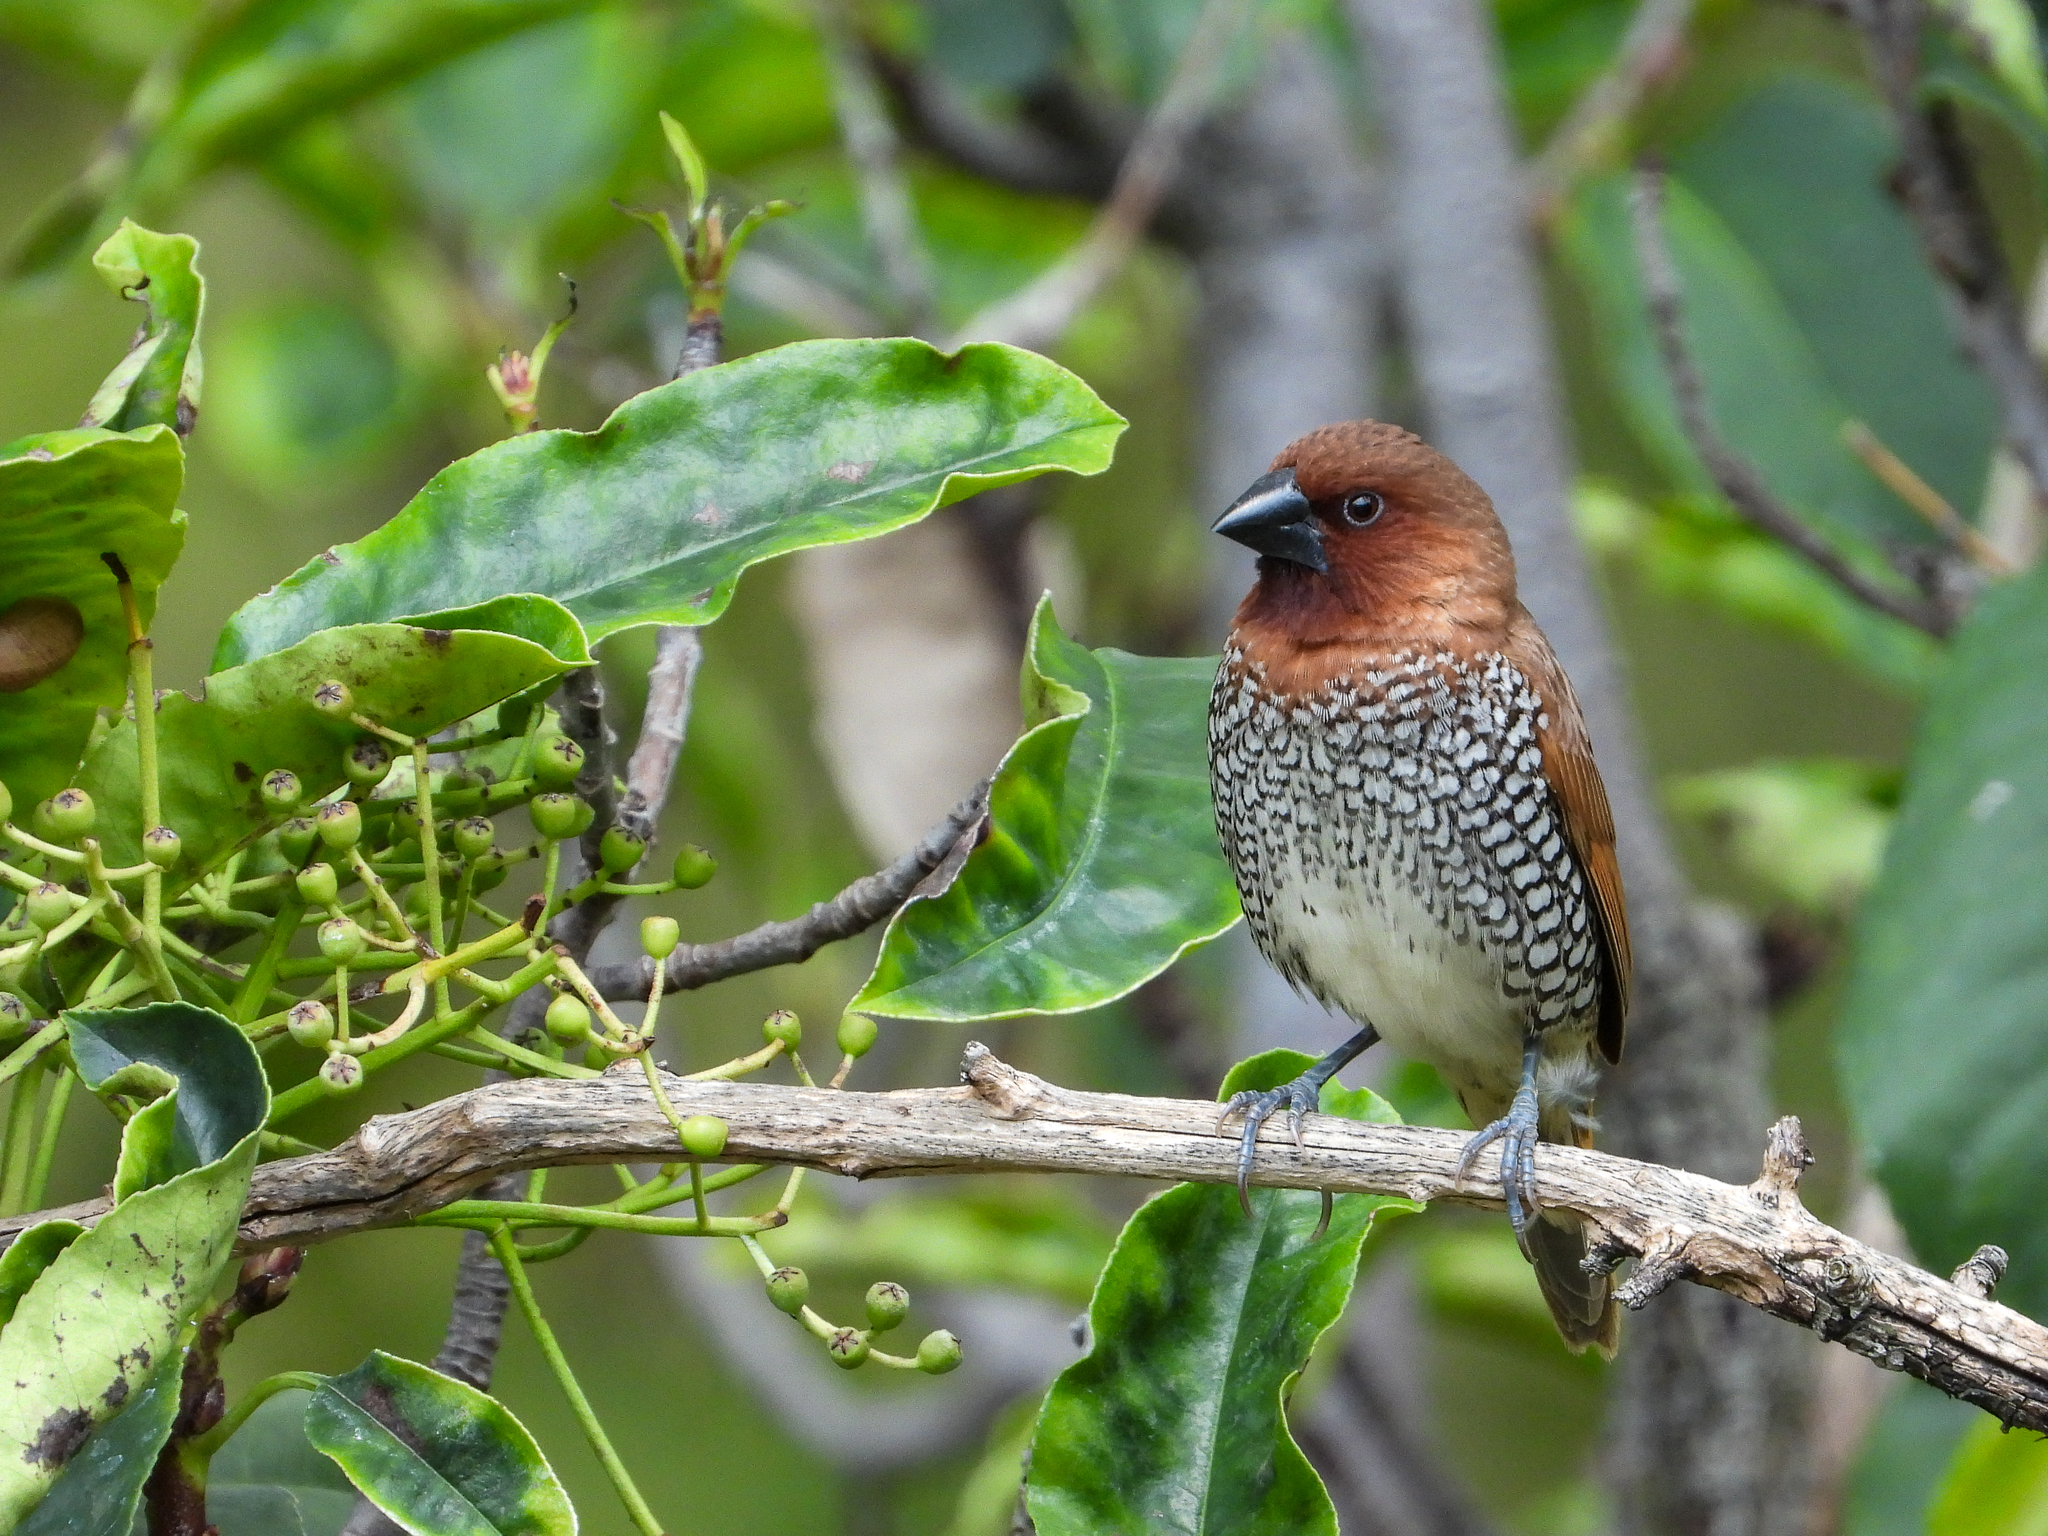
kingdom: Animalia
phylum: Chordata
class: Aves
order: Passeriformes
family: Estrildidae
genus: Lonchura
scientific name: Lonchura punctulata
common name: Scaly-breasted munia
